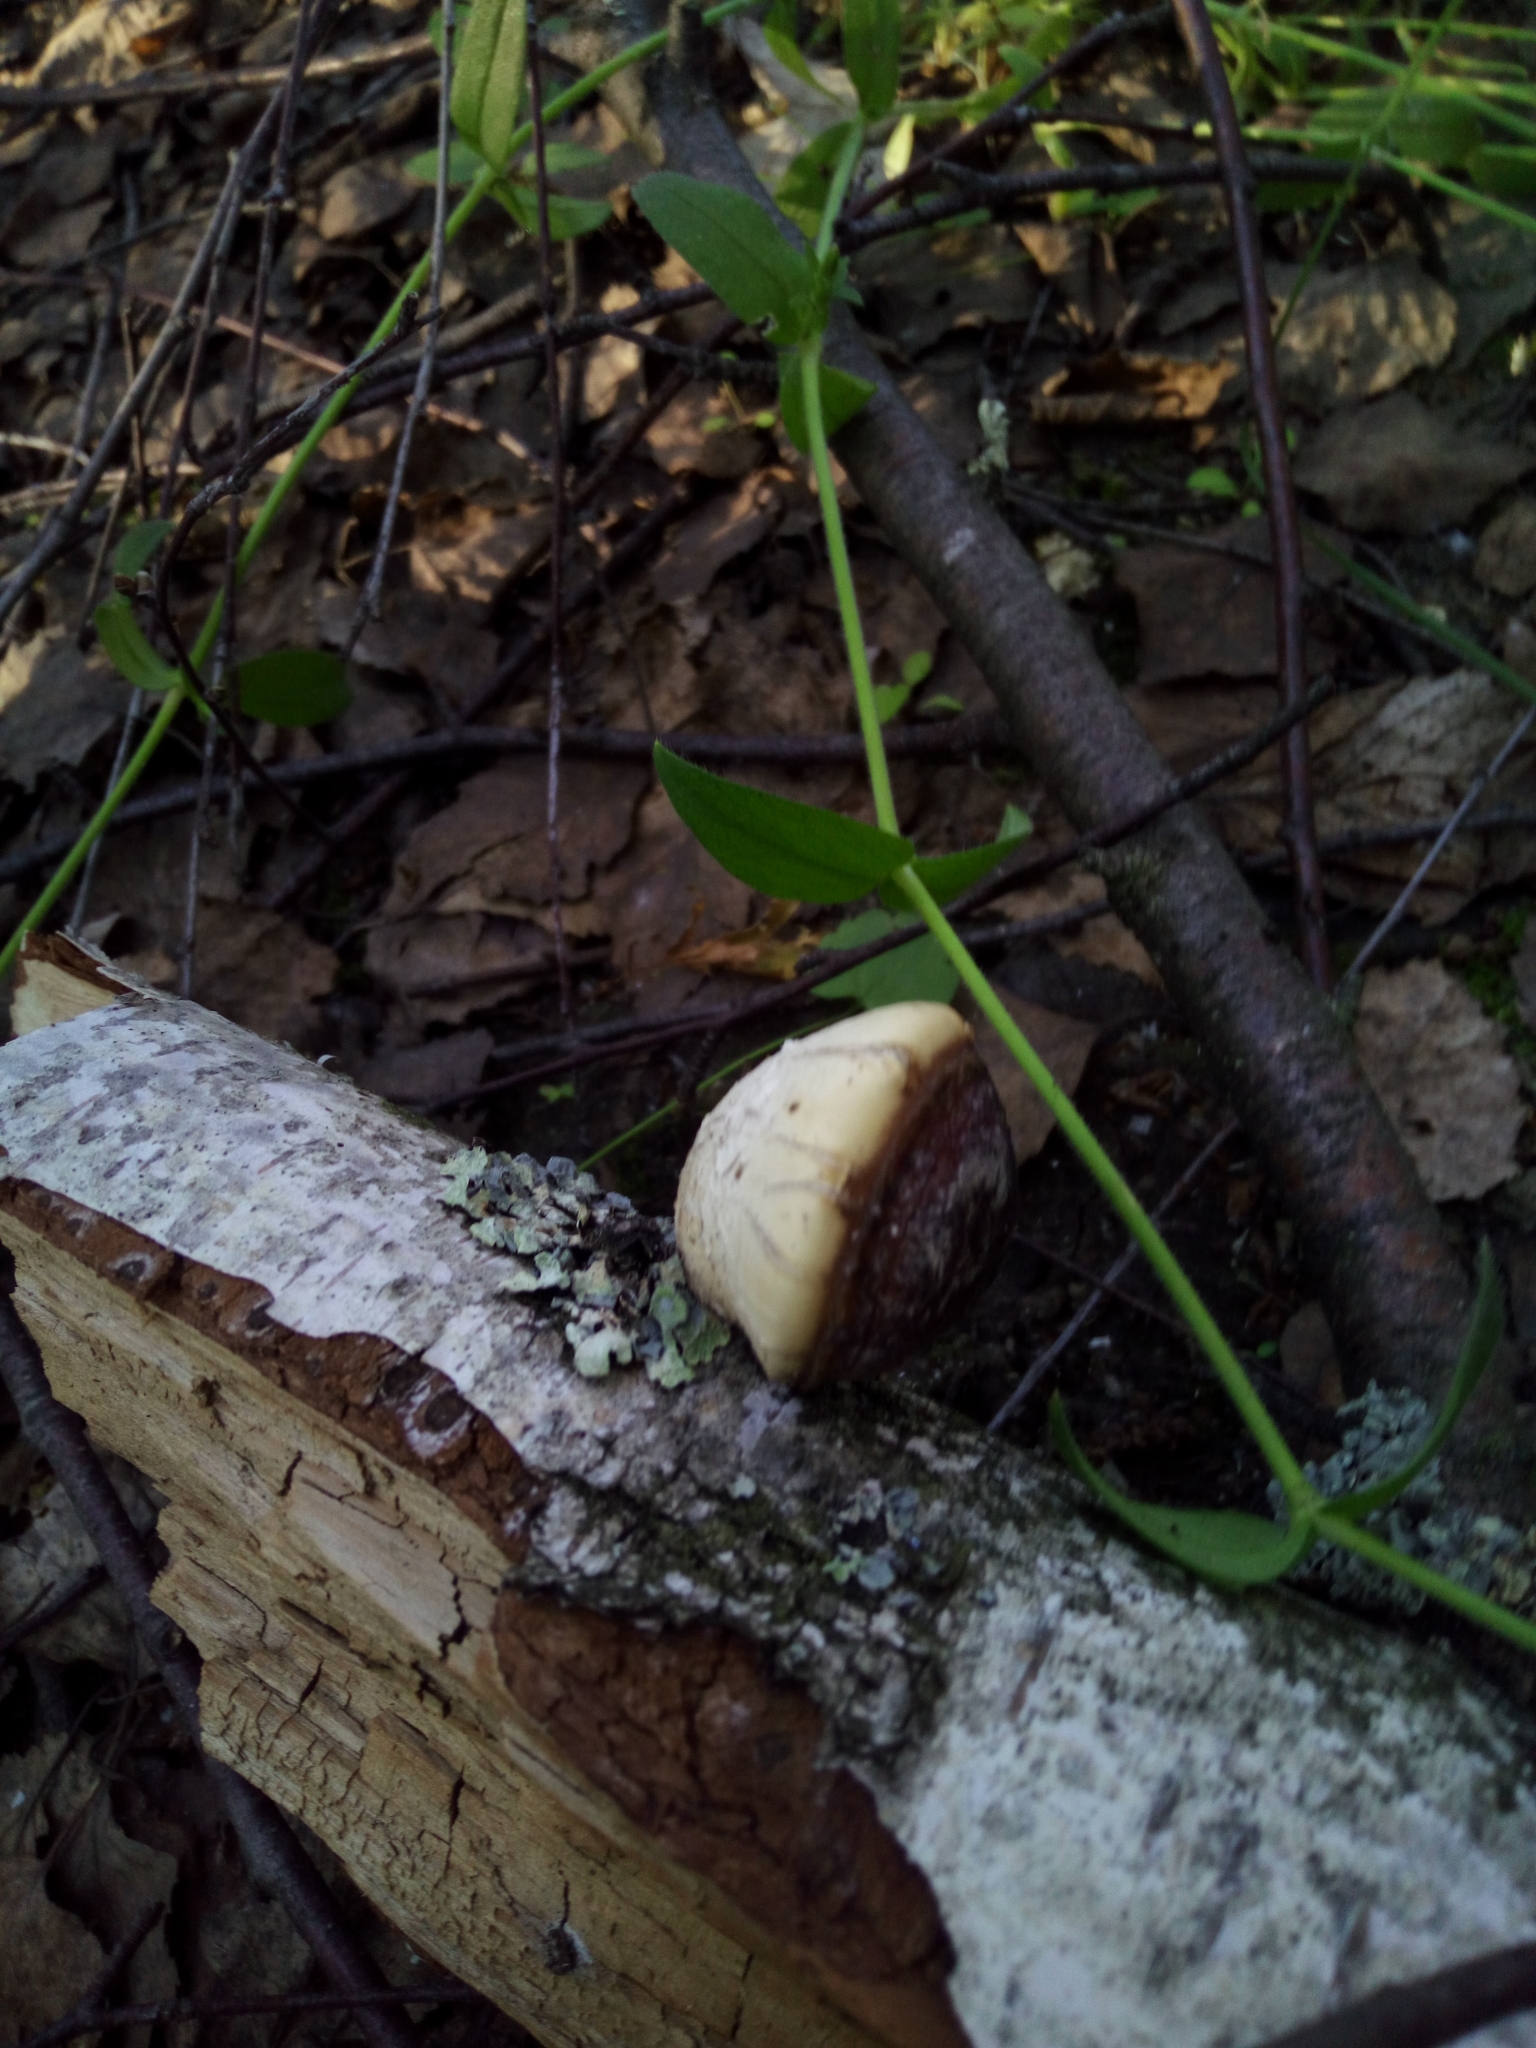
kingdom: Fungi
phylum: Basidiomycota
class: Agaricomycetes
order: Polyporales
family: Fomitopsidaceae
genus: Fomitopsis
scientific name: Fomitopsis betulina
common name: Birch polypore
